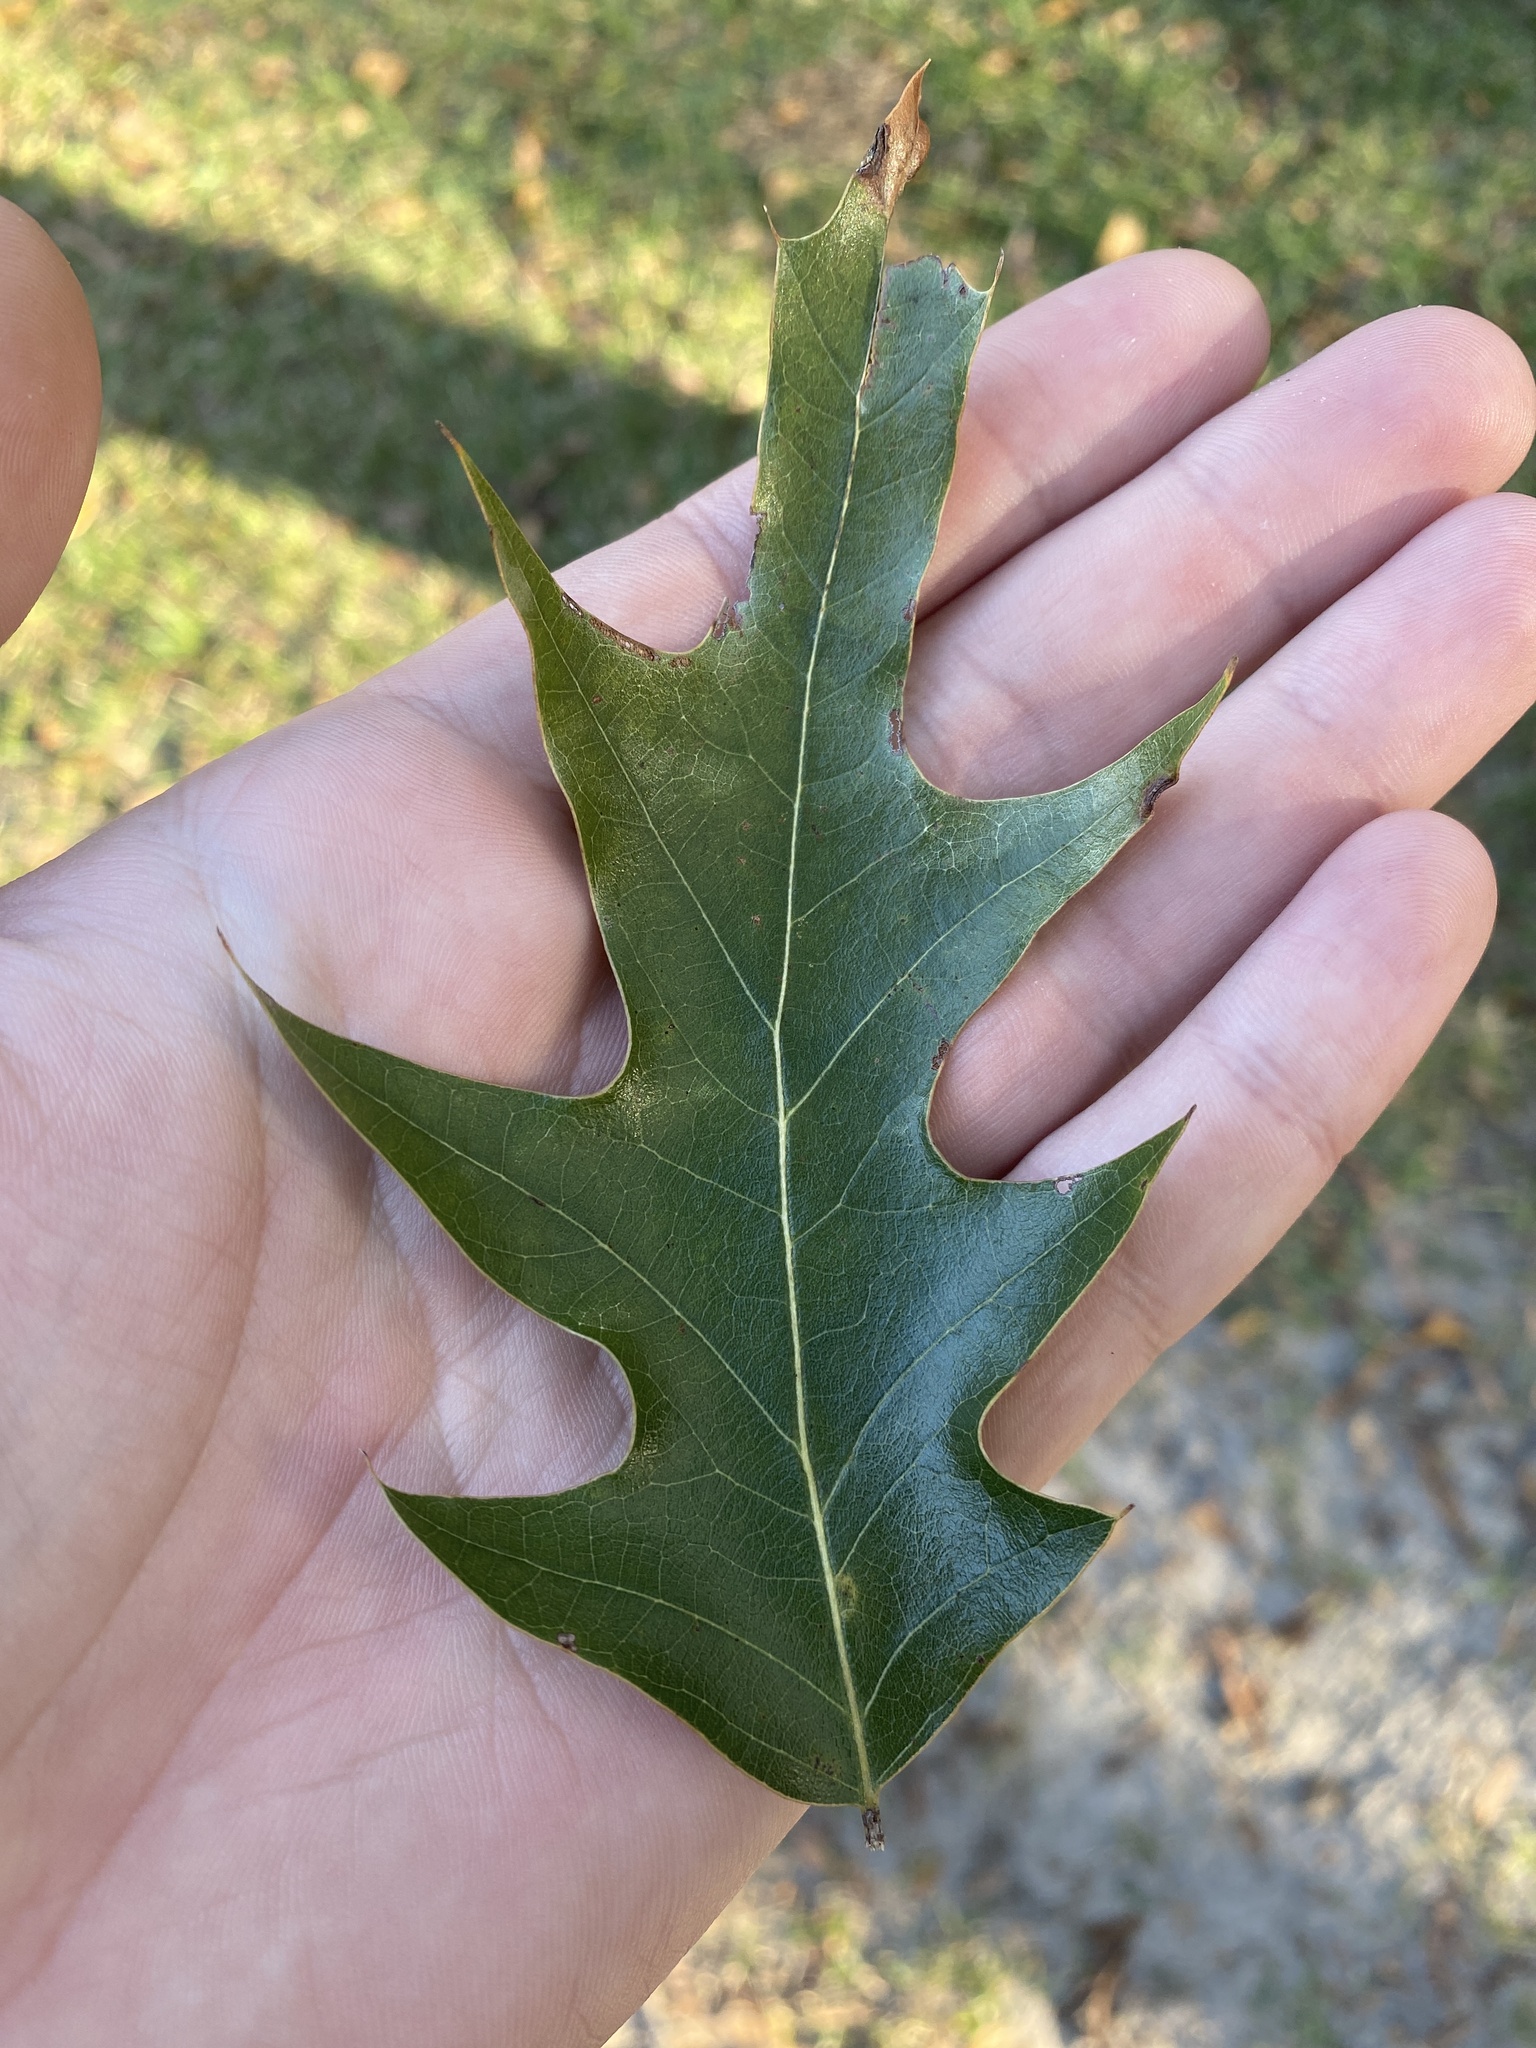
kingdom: Plantae
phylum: Tracheophyta
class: Magnoliopsida
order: Fagales
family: Fagaceae
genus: Quercus
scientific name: Quercus pagoda
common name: Cherrybark oak
